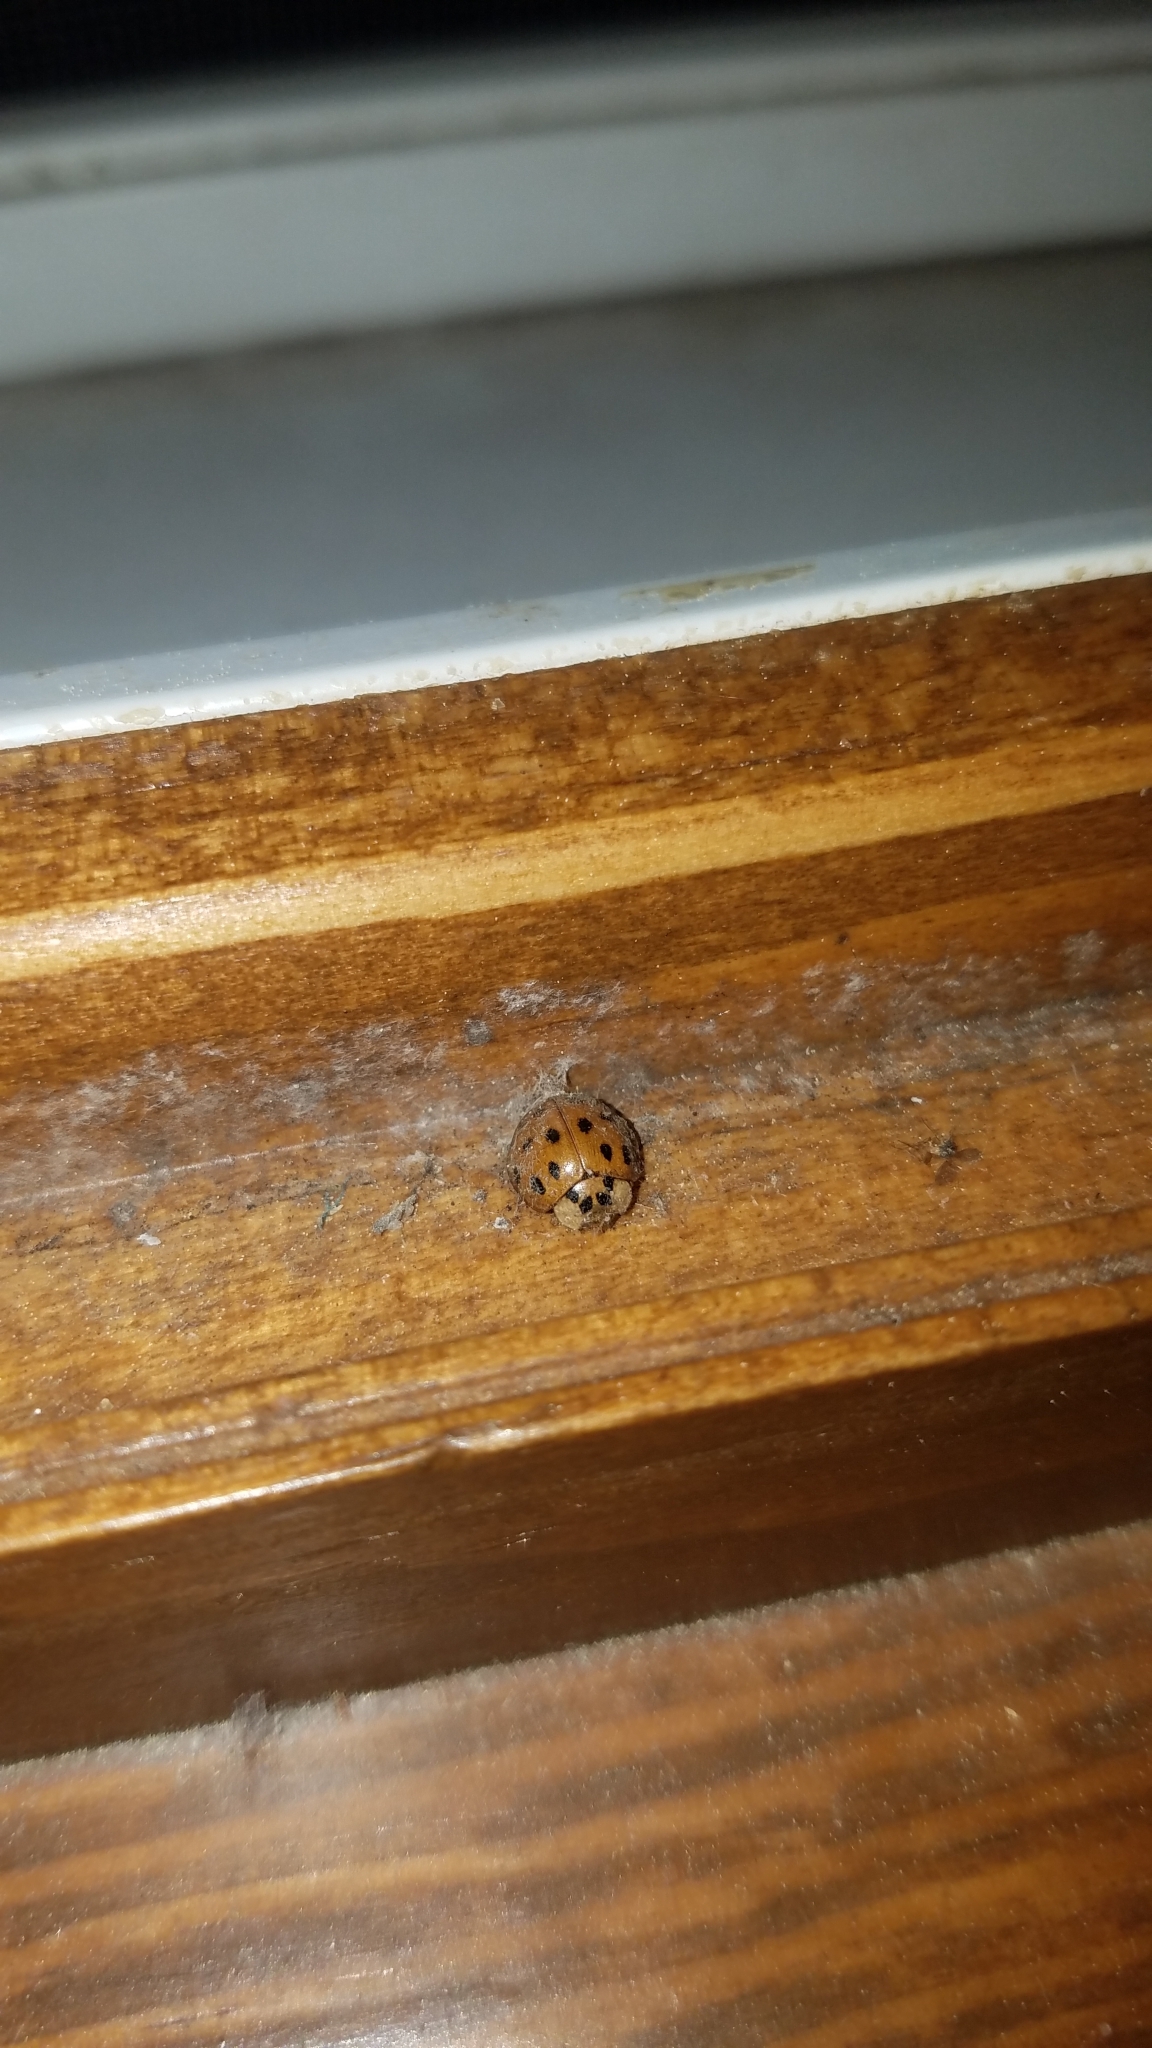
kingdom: Animalia
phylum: Arthropoda
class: Insecta
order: Coleoptera
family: Coccinellidae
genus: Harmonia
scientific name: Harmonia axyridis
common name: Harlequin ladybird
